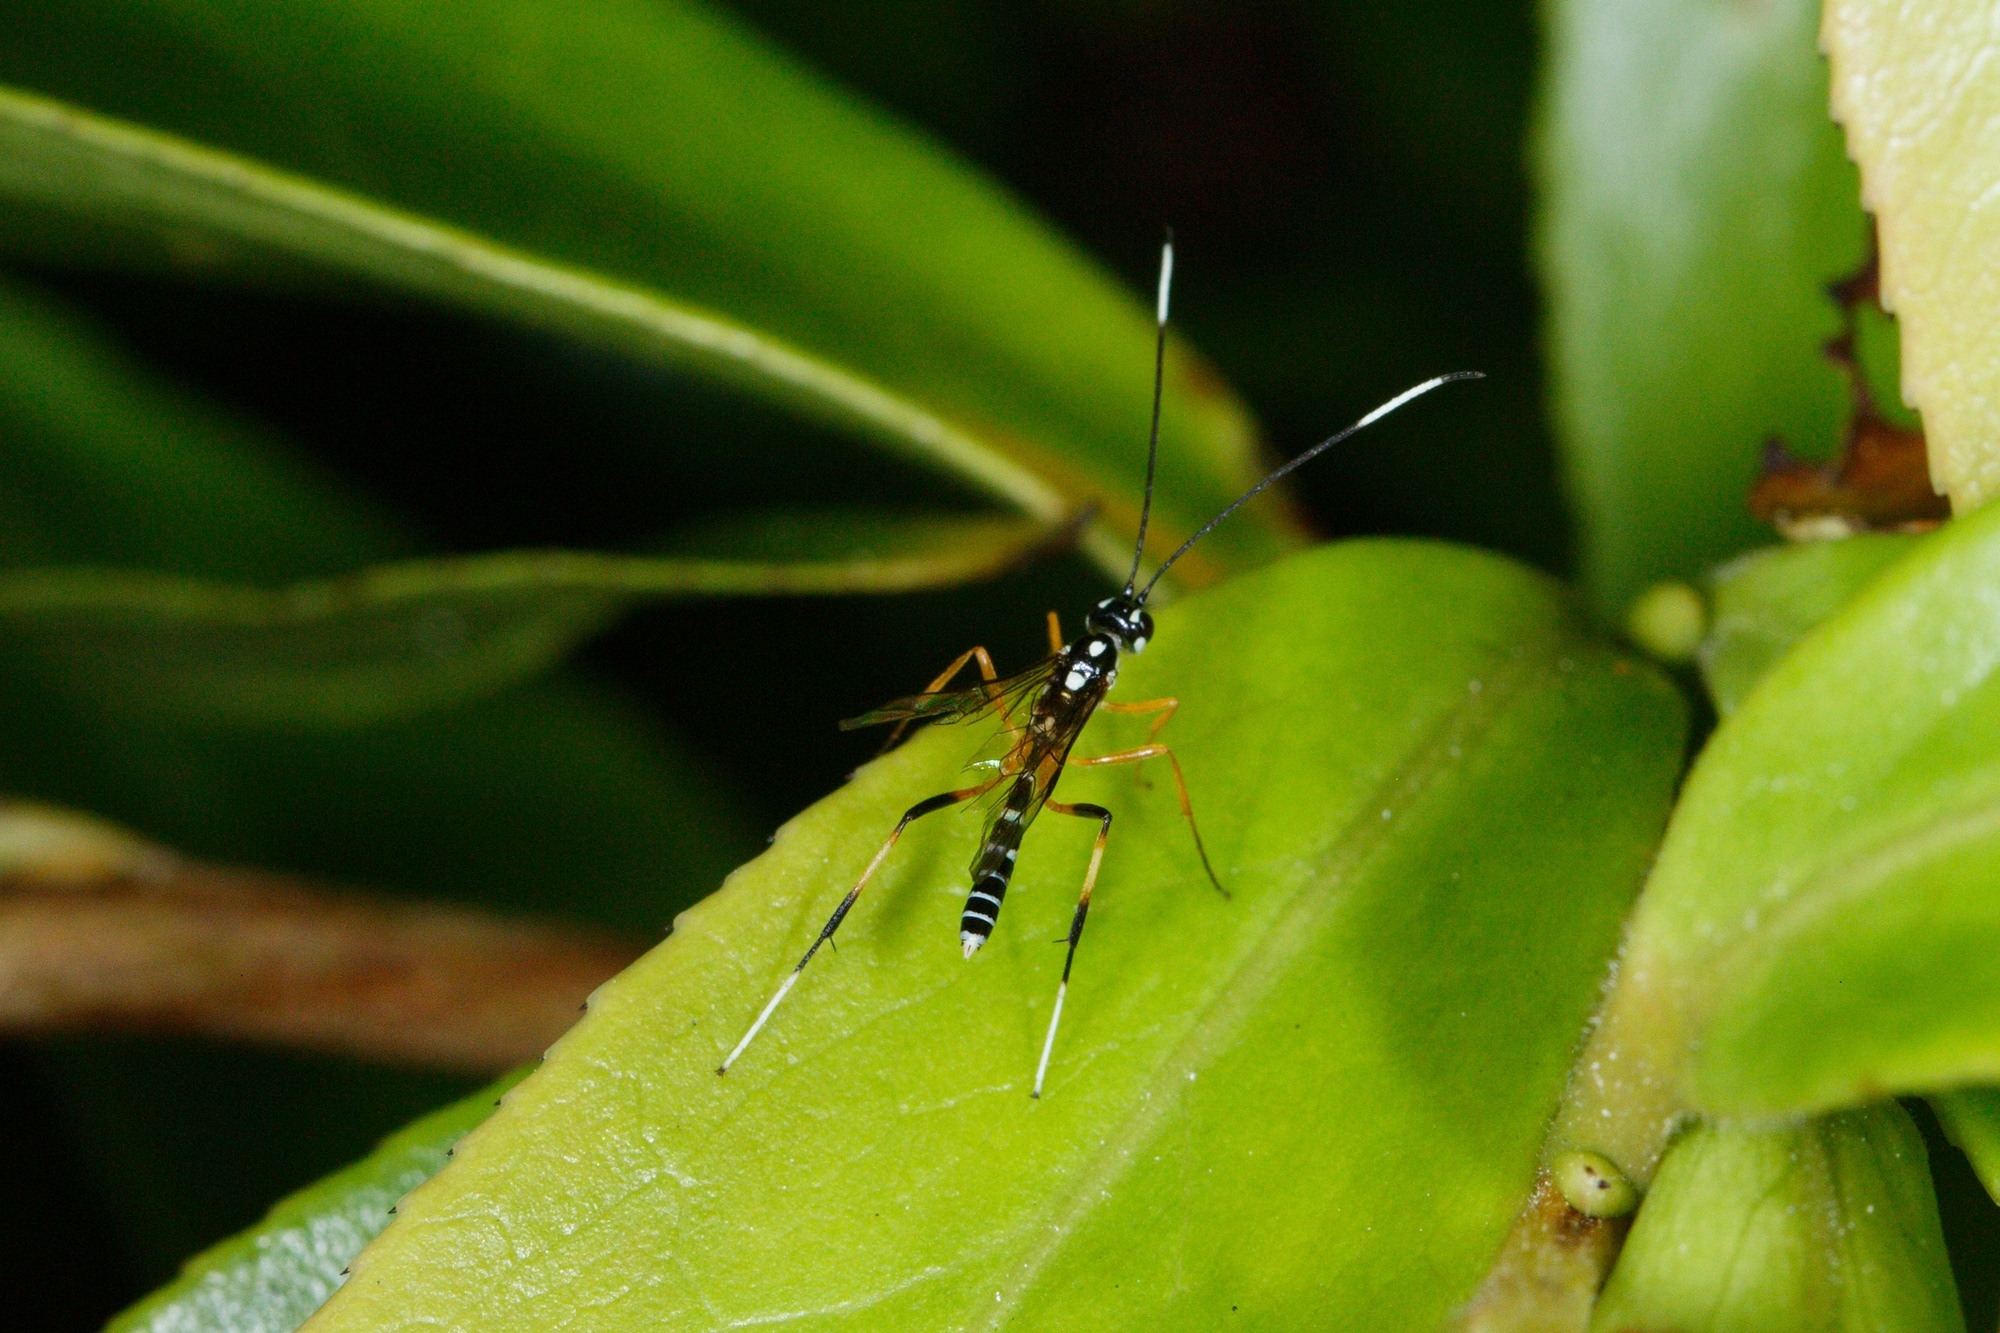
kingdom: Animalia
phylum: Arthropoda
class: Insecta
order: Hymenoptera
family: Ichneumonidae
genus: Xanthocryptus
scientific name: Xanthocryptus novozealandicus
